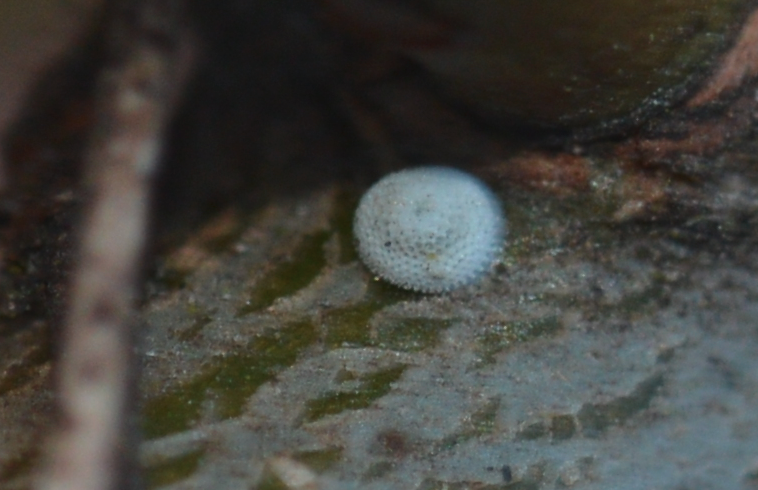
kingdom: Animalia
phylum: Arthropoda
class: Insecta
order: Lepidoptera
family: Lycaenidae
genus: Thecla
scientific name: Thecla betulae
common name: Brown hairstreak
